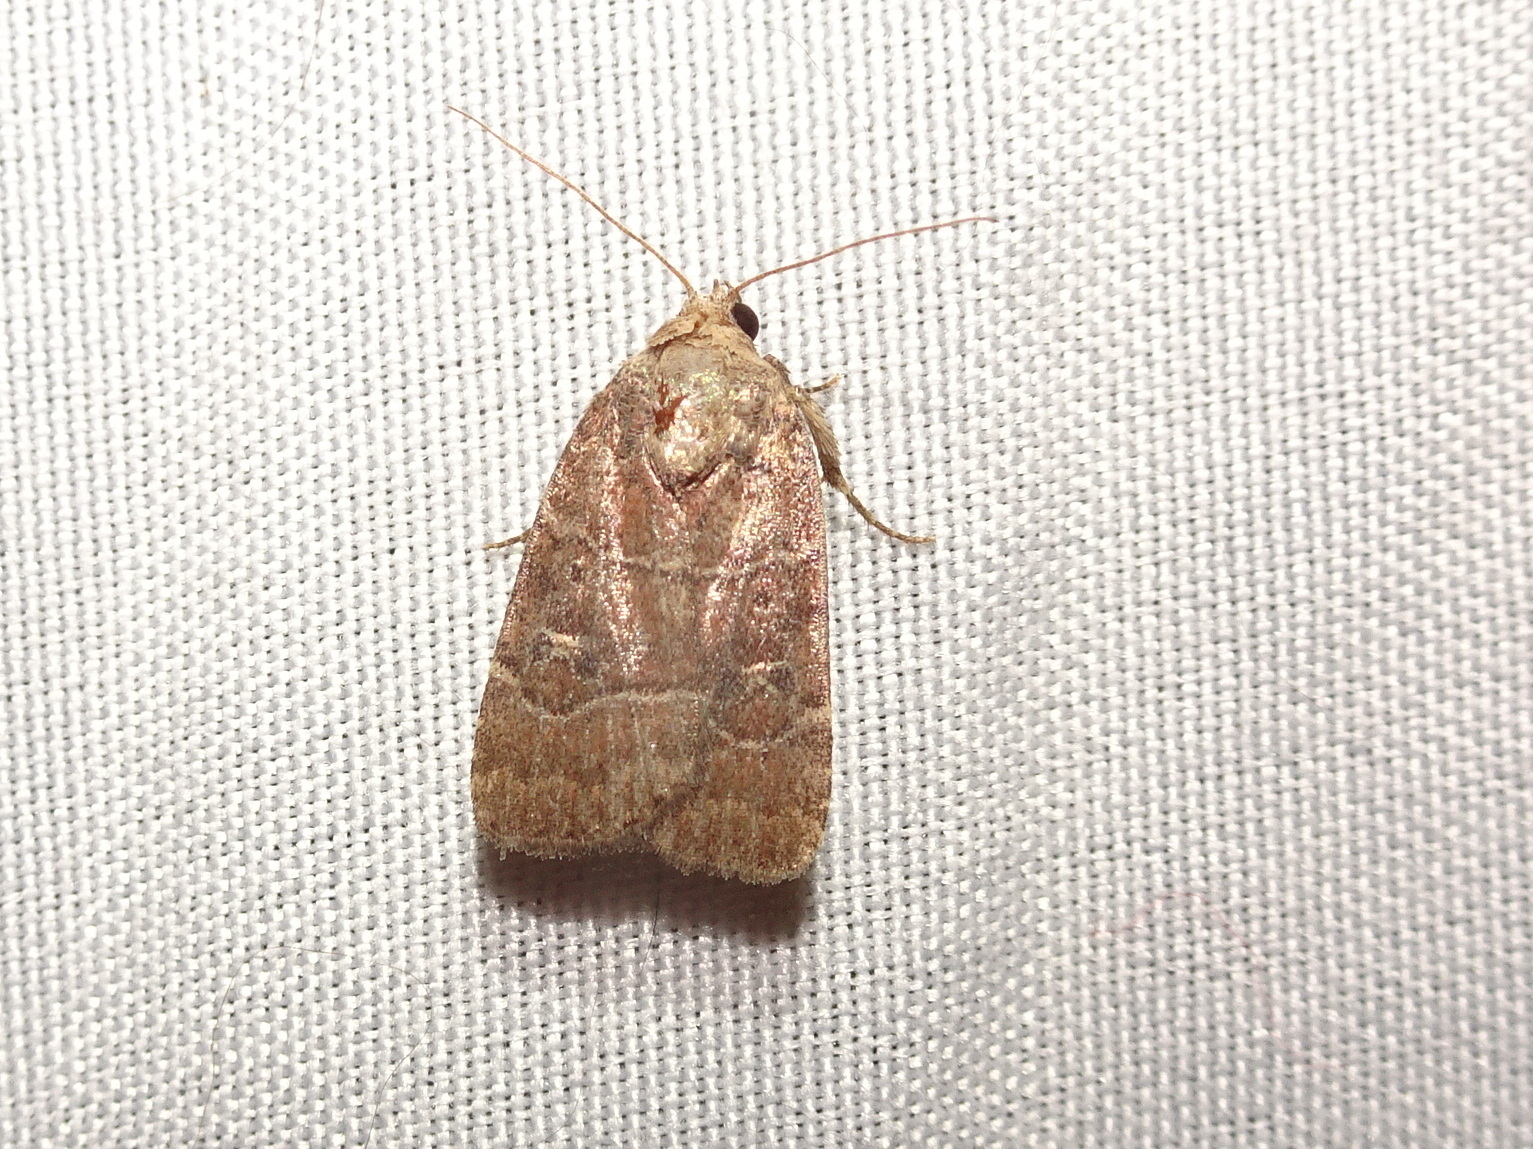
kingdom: Animalia
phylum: Arthropoda
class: Insecta
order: Lepidoptera
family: Noctuidae
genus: Elaphria
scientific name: Elaphria grata
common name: Grateful midget moth
